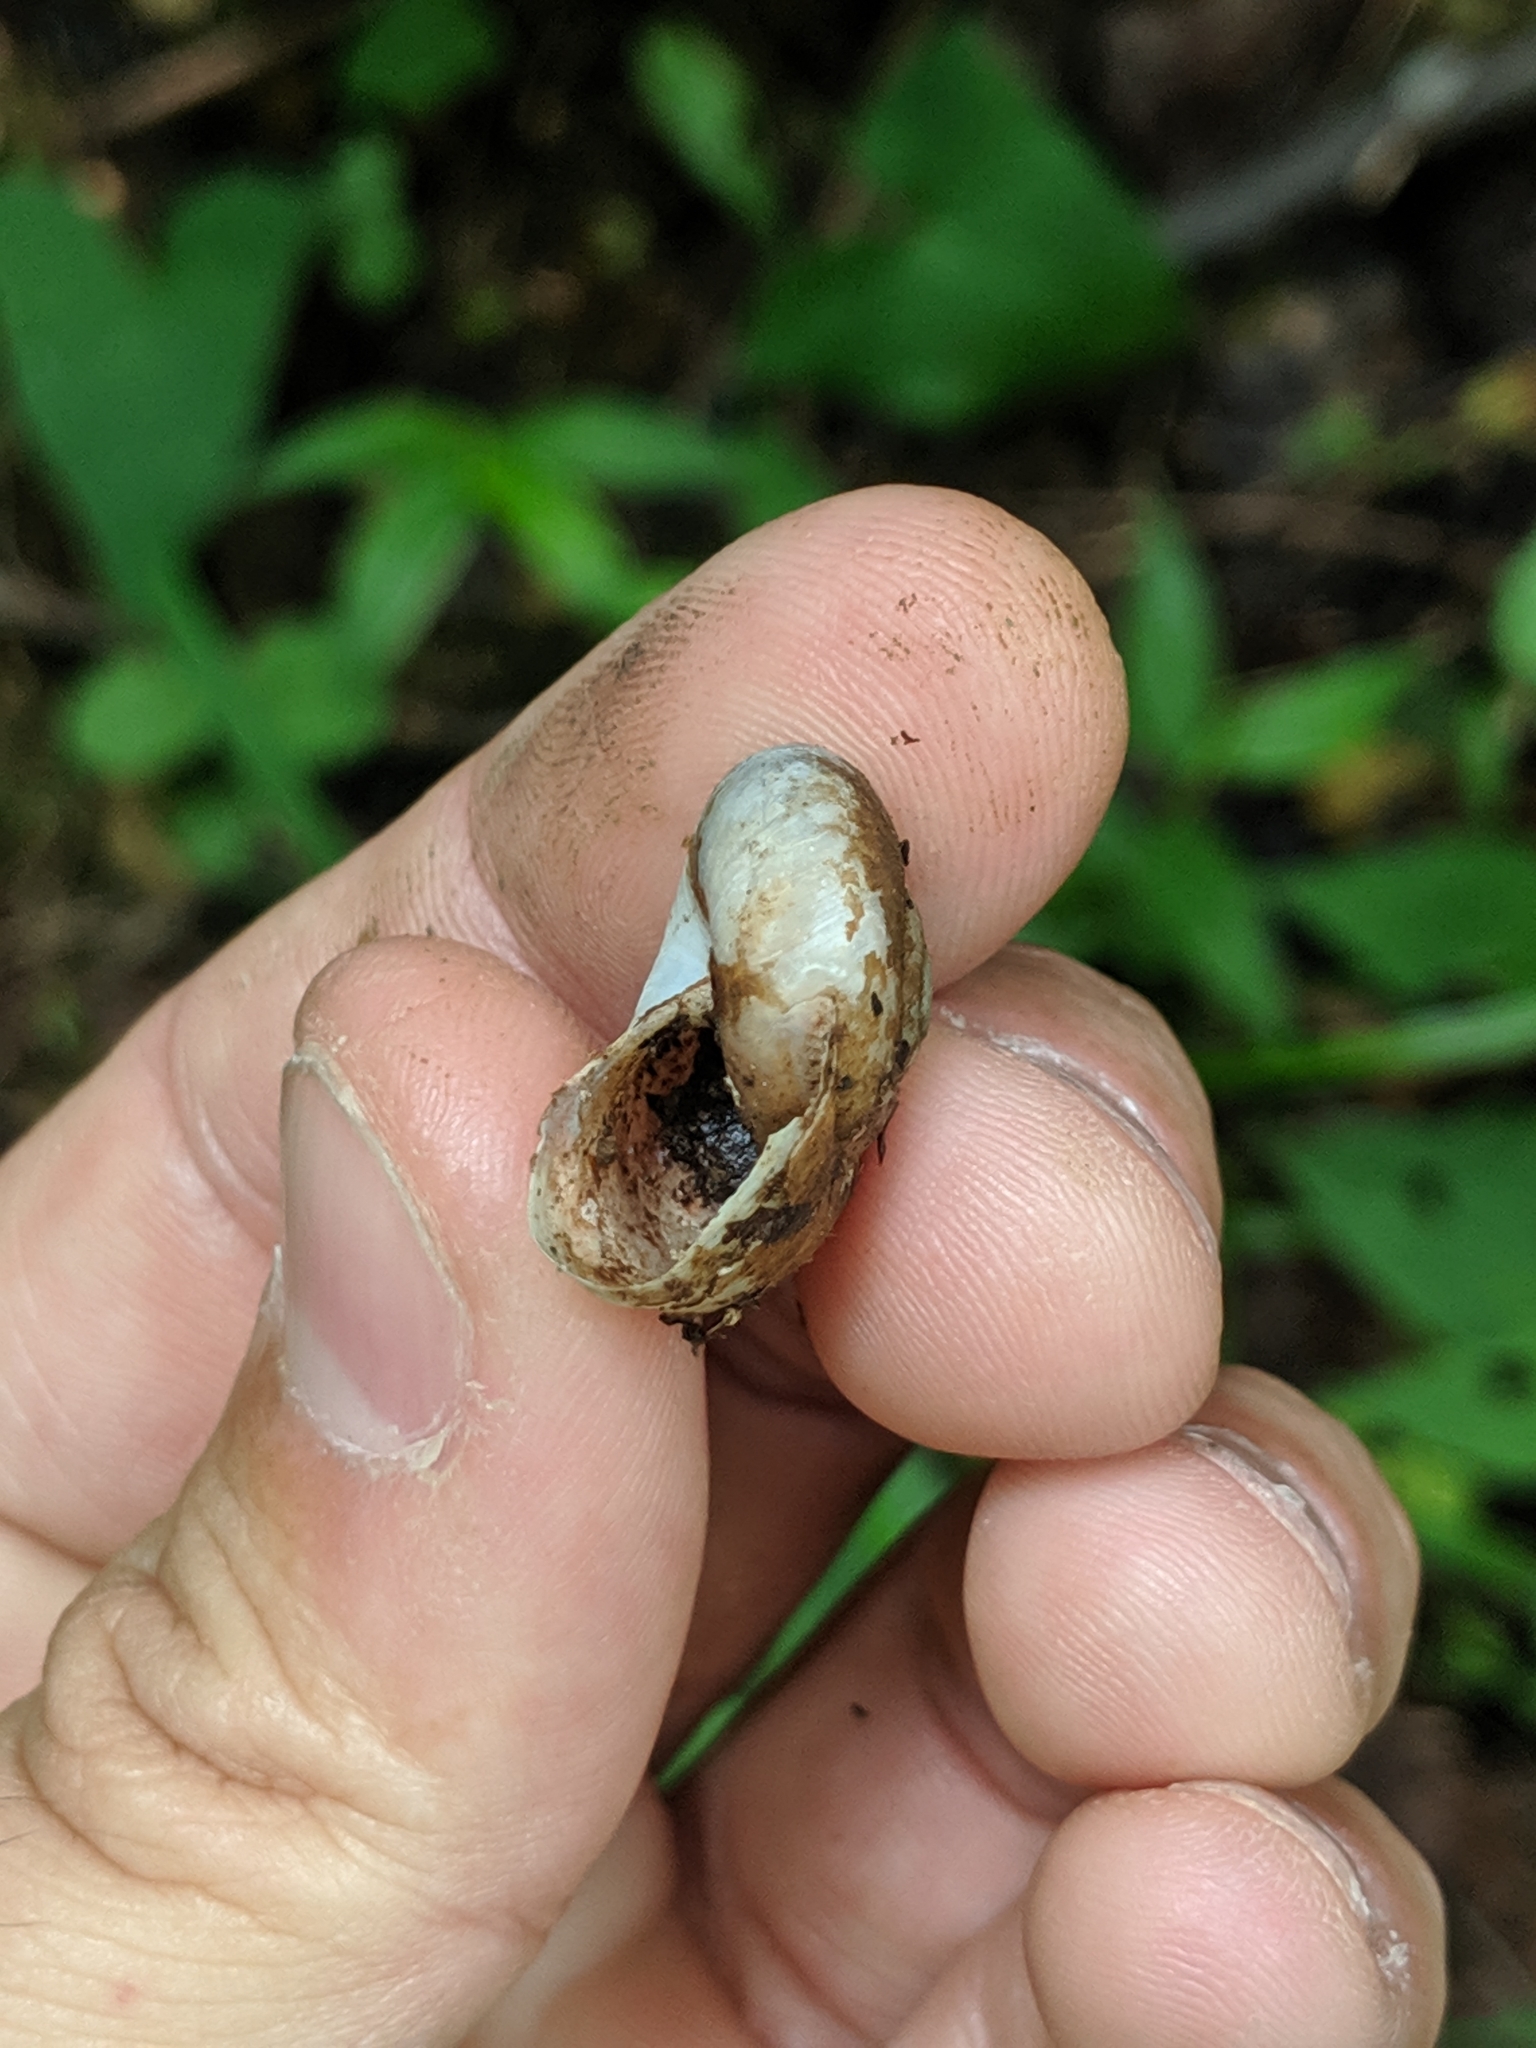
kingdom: Animalia
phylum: Mollusca
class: Gastropoda
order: Stylommatophora
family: Gastrodontidae
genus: Mesomphix
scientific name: Mesomphix cupreus
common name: Copper button
